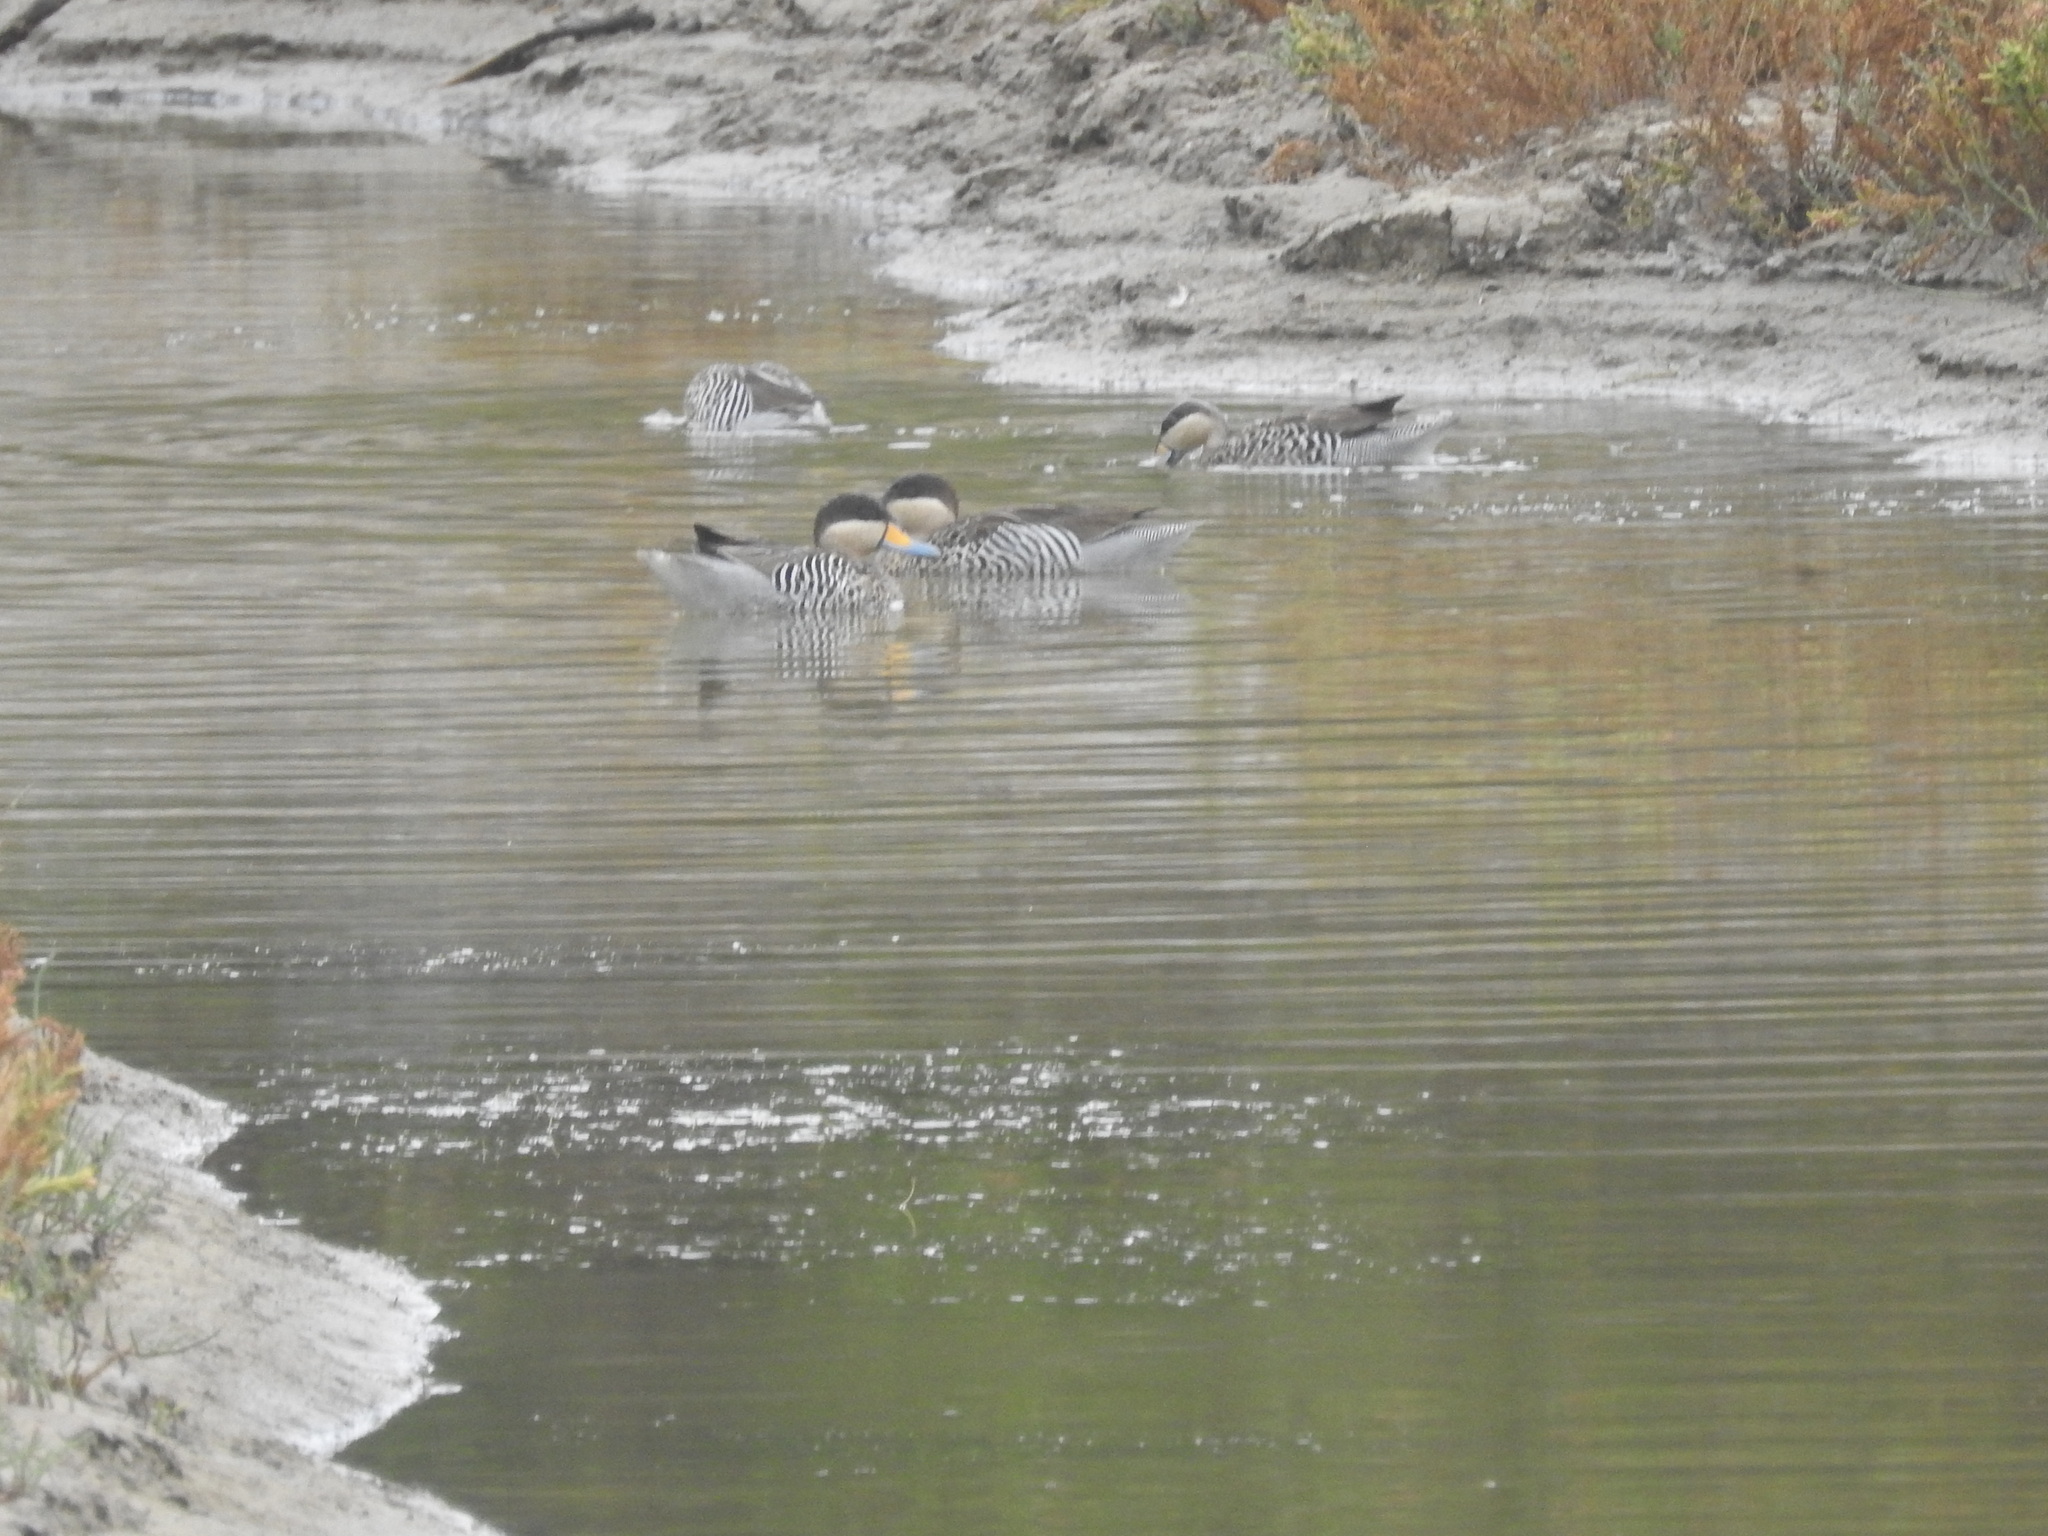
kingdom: Animalia
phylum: Chordata
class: Aves
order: Anseriformes
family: Anatidae
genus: Spatula
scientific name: Spatula versicolor
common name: Silver teal
